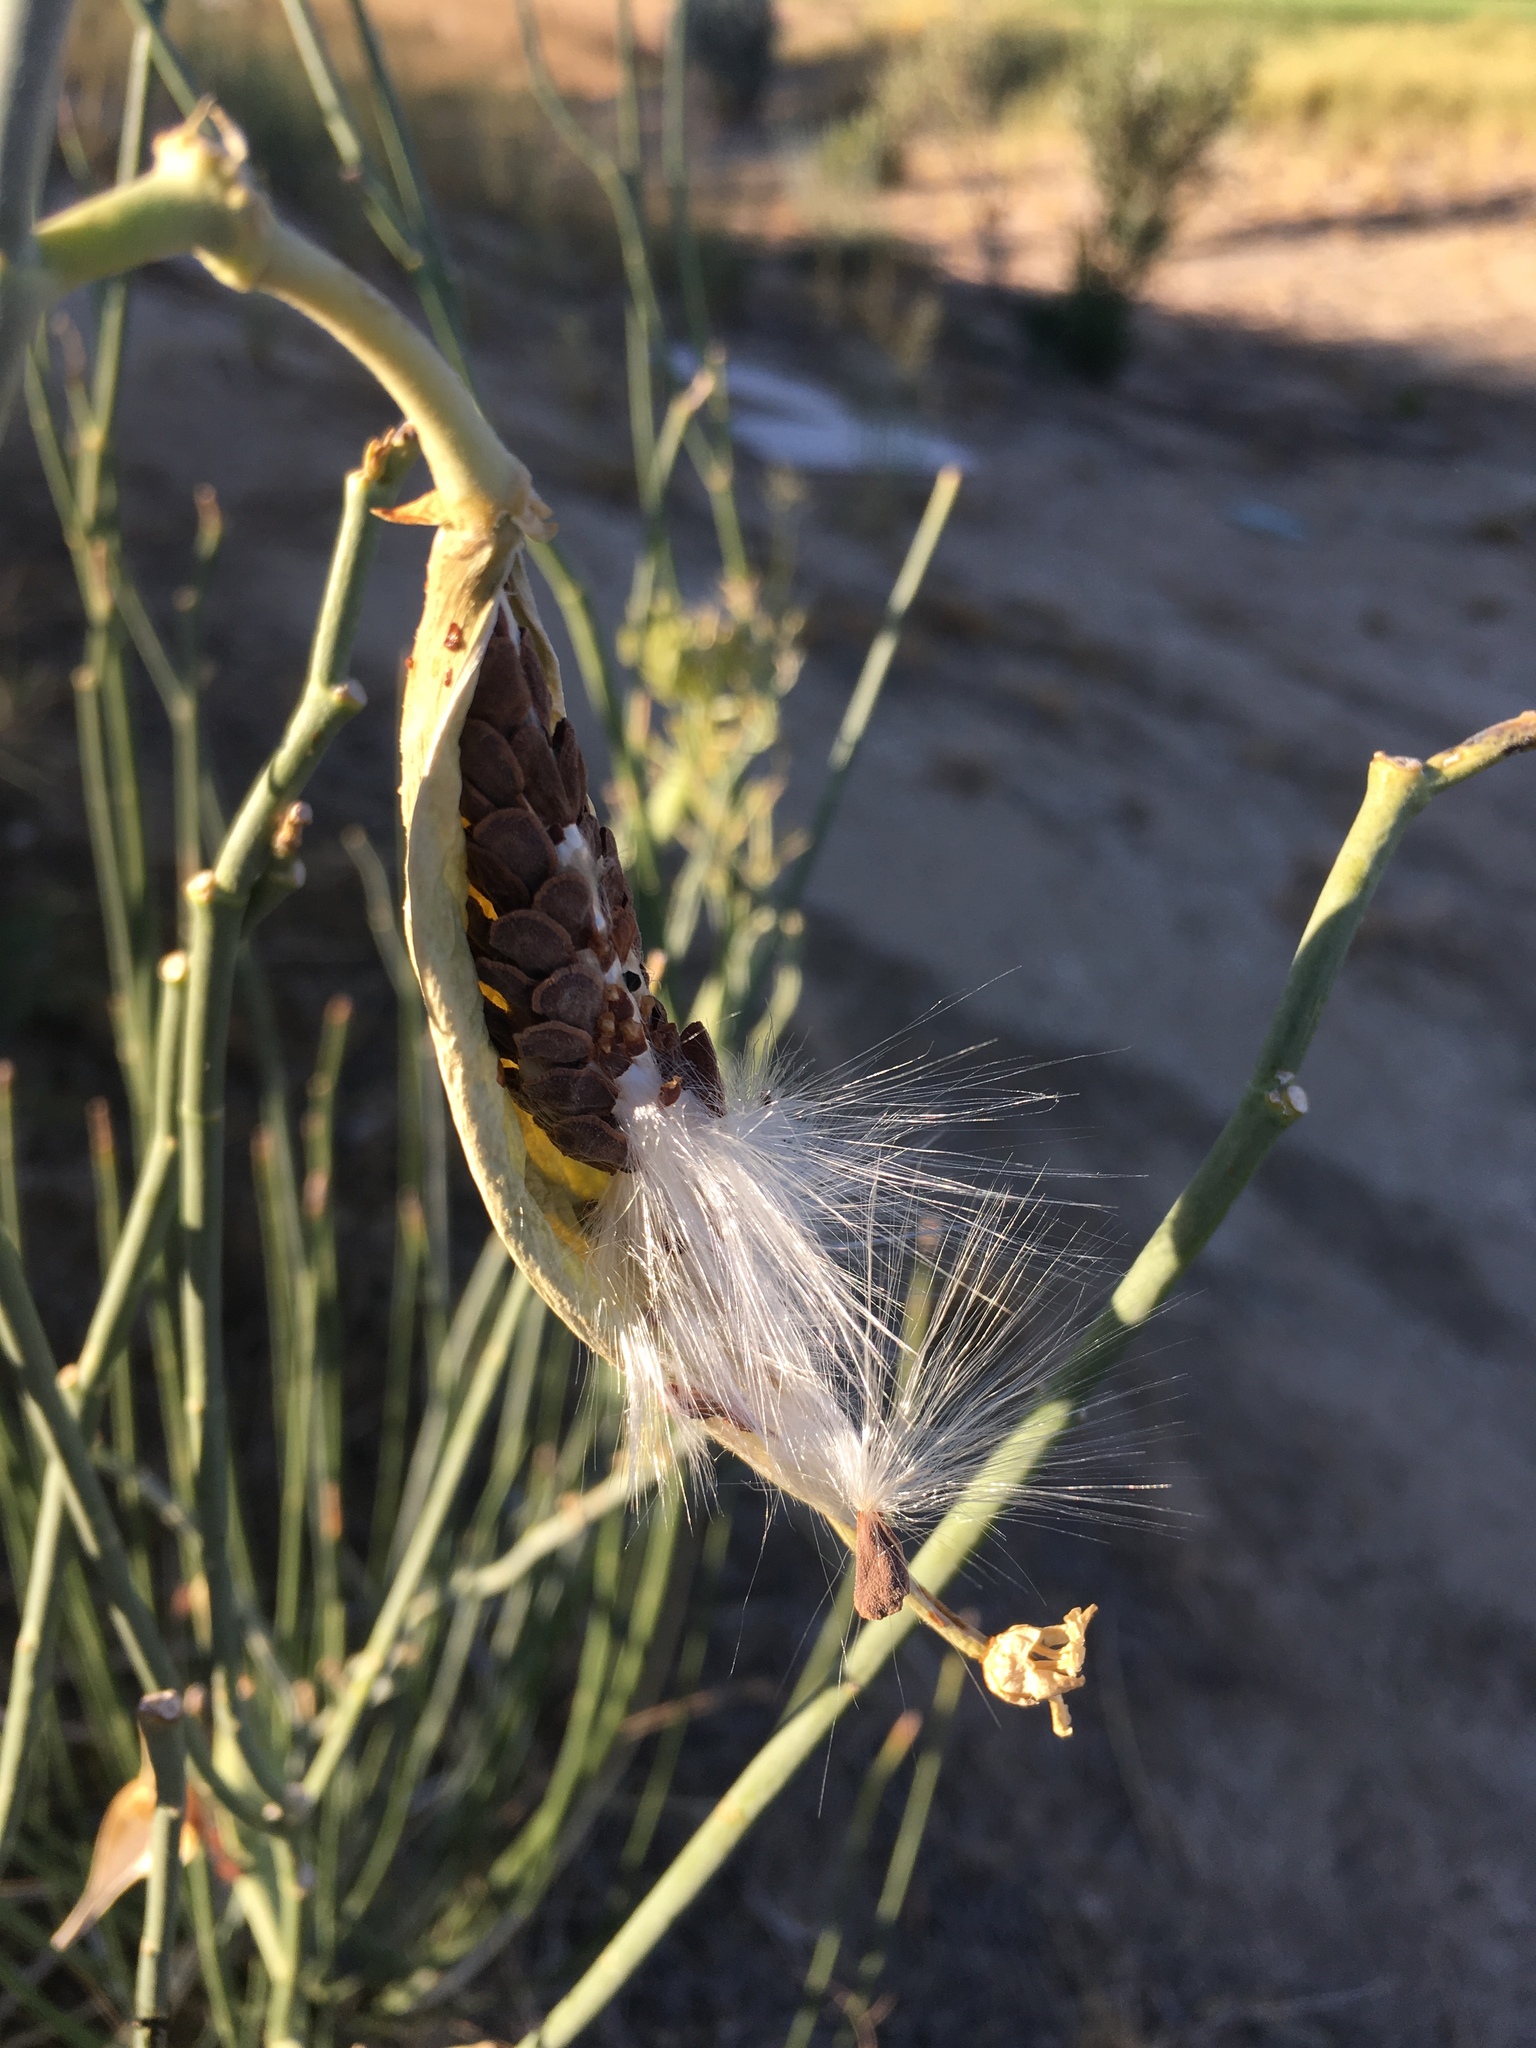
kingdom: Plantae
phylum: Tracheophyta
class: Magnoliopsida
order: Gentianales
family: Apocynaceae
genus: Asclepias
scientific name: Asclepias subulata
